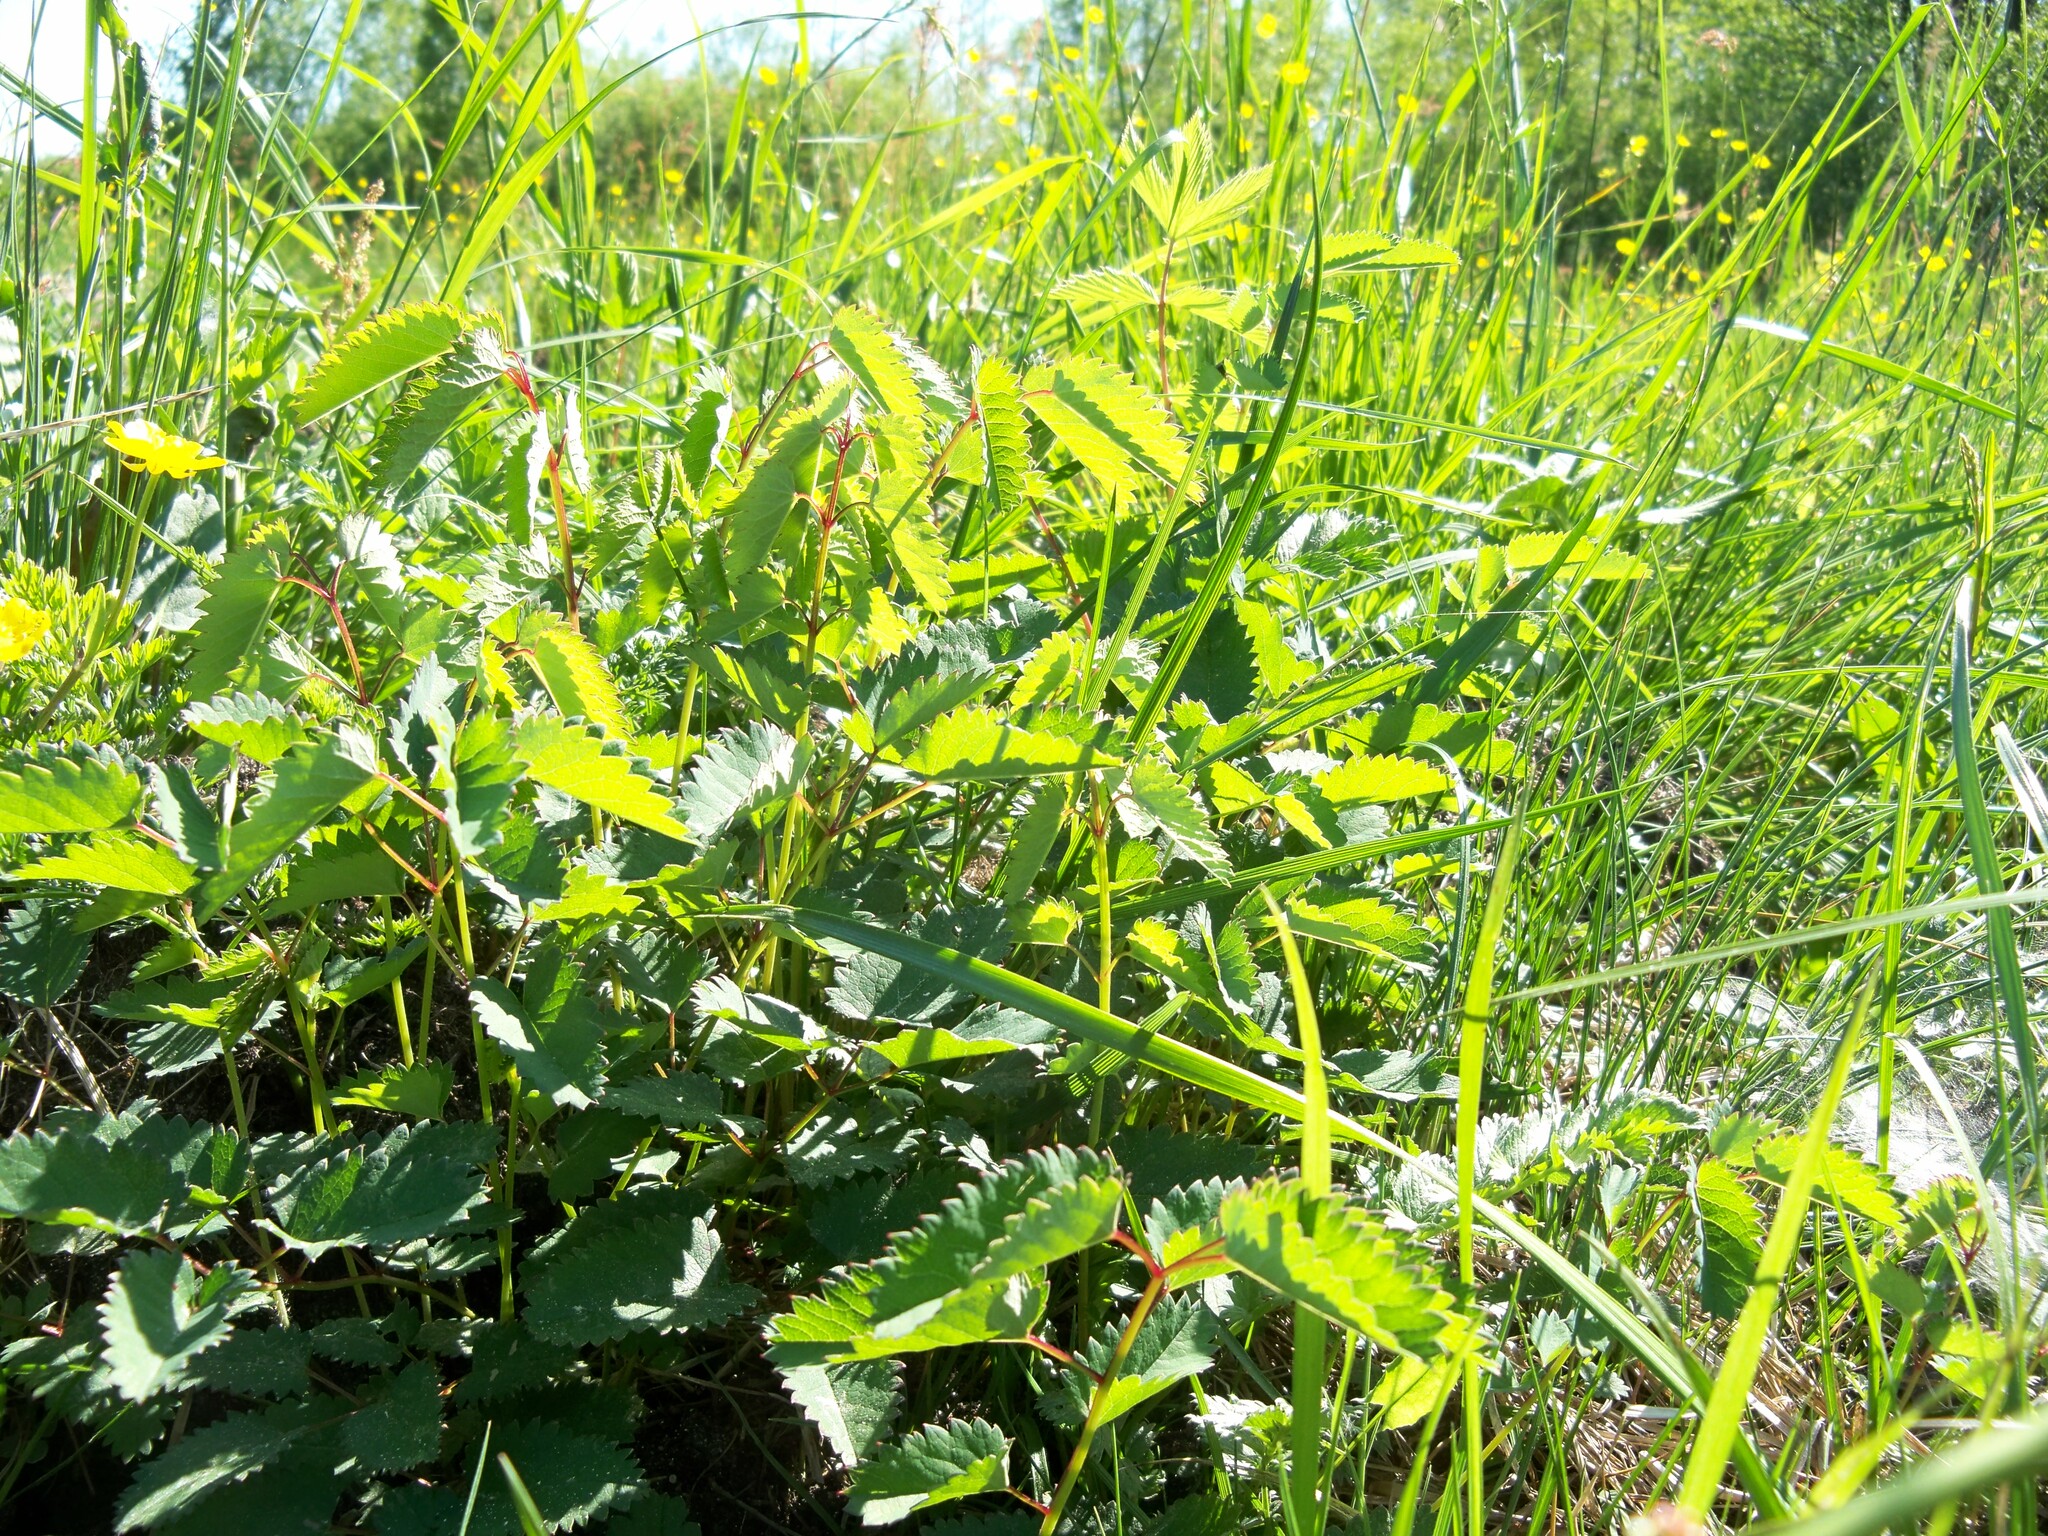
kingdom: Plantae
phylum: Tracheophyta
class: Magnoliopsida
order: Rosales
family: Rosaceae
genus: Sanguisorba
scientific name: Sanguisorba officinalis
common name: Great burnet
